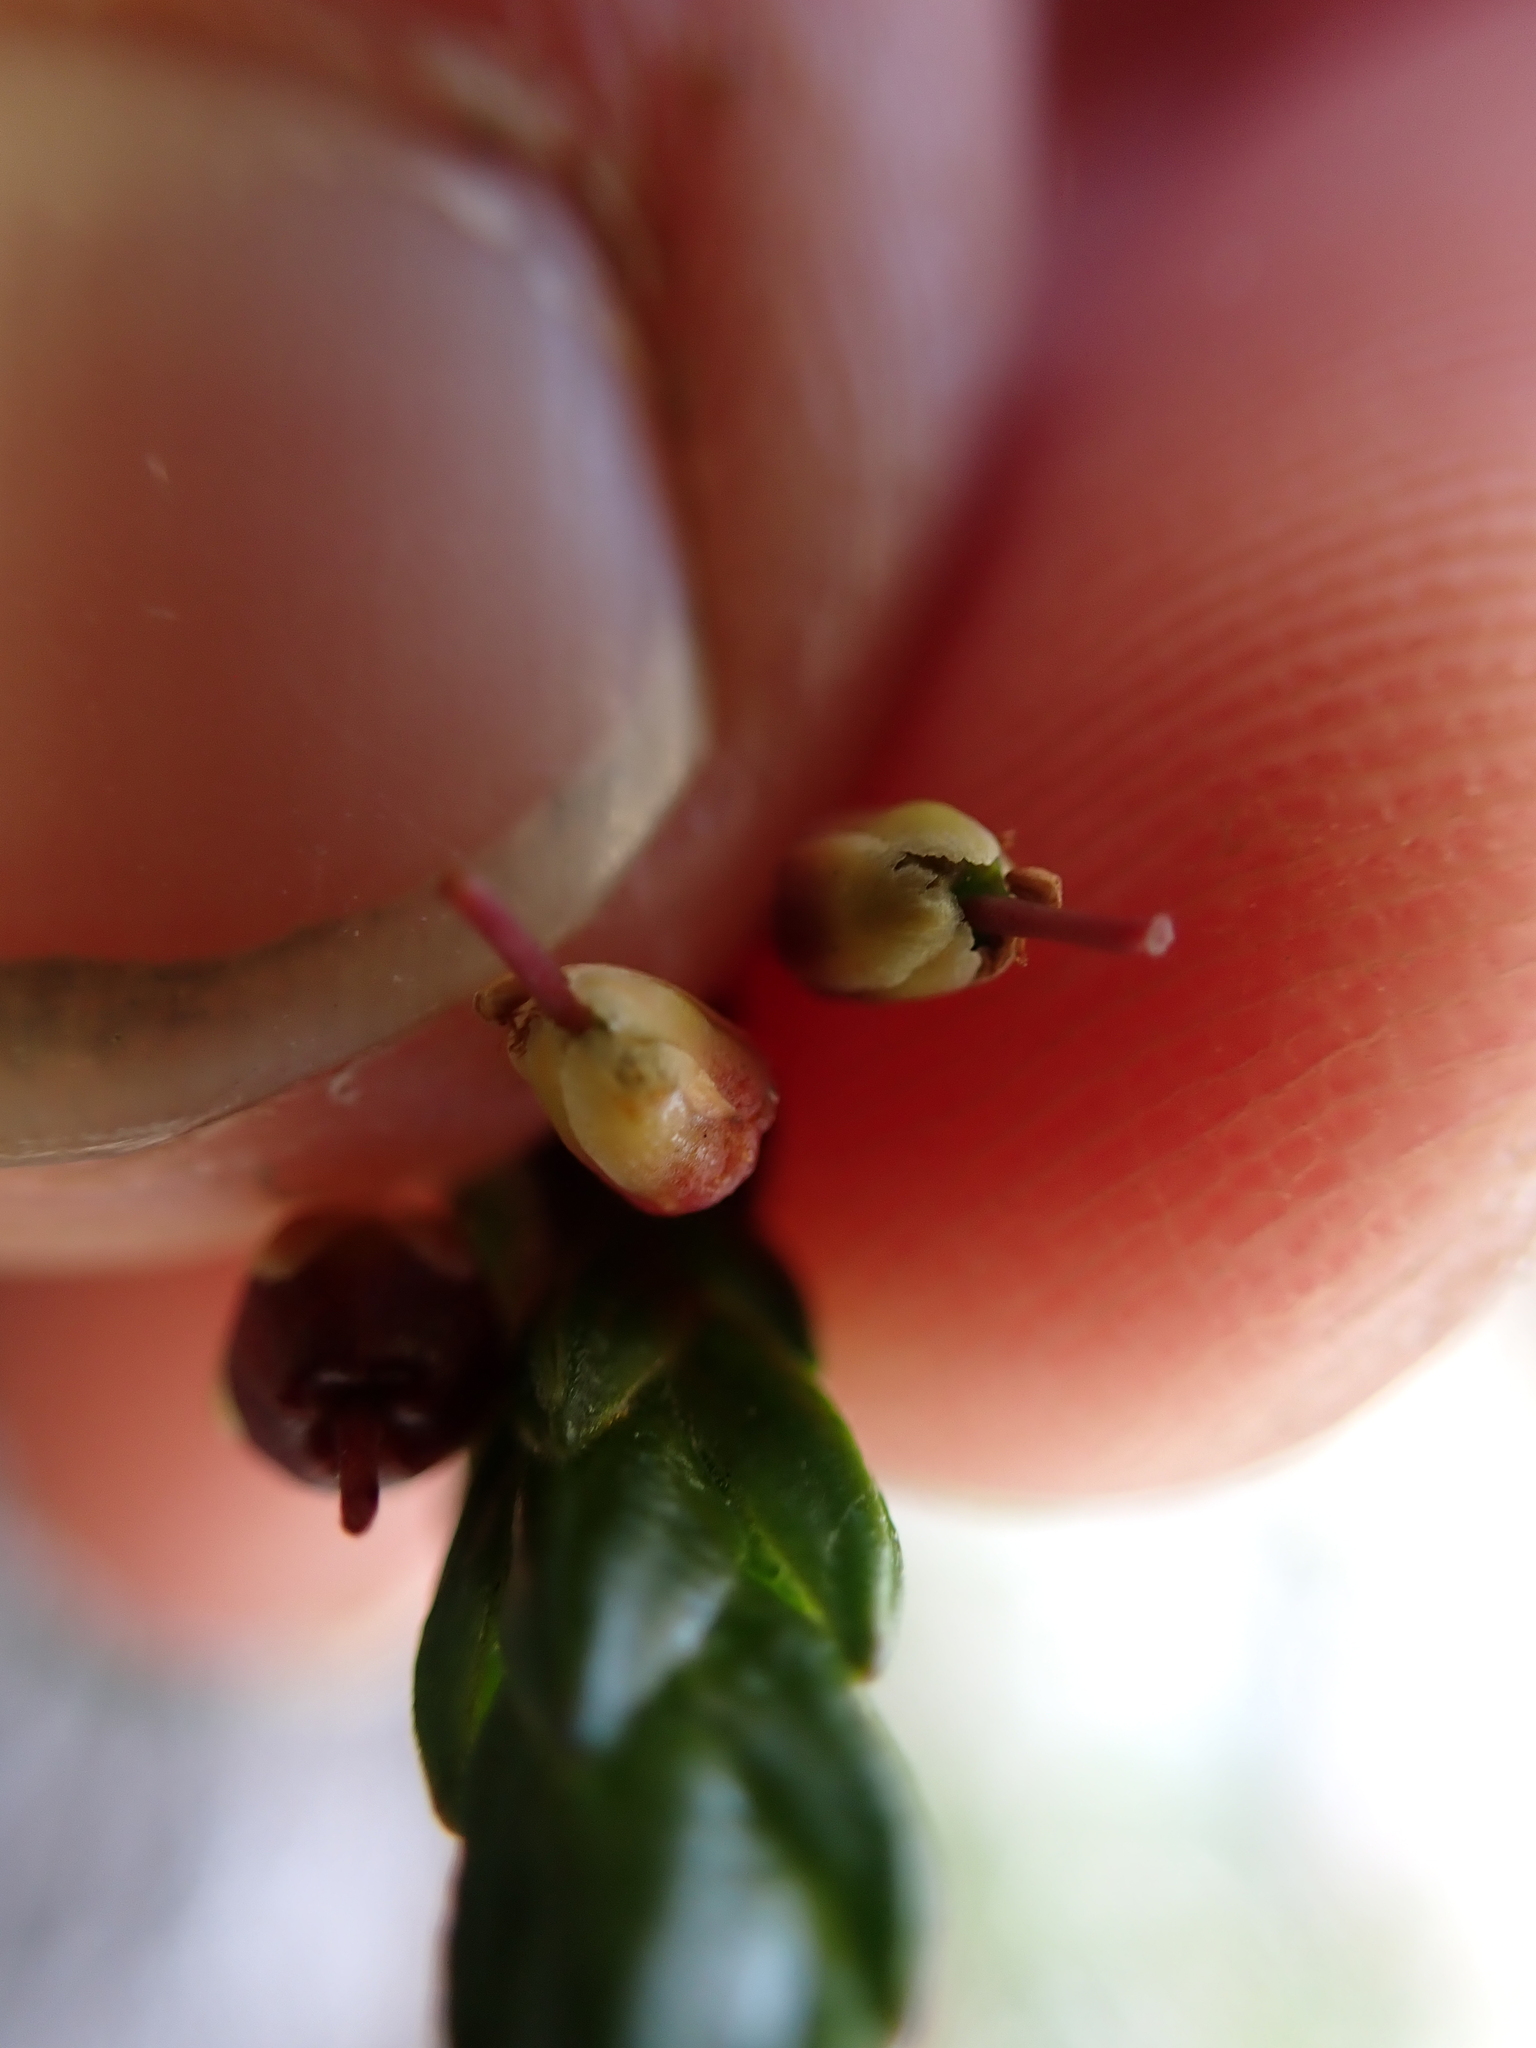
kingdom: Plantae
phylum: Tracheophyta
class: Magnoliopsida
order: Ericales
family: Ericaceae
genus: Cassiope
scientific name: Cassiope tetragona
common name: Arctic bell heather
